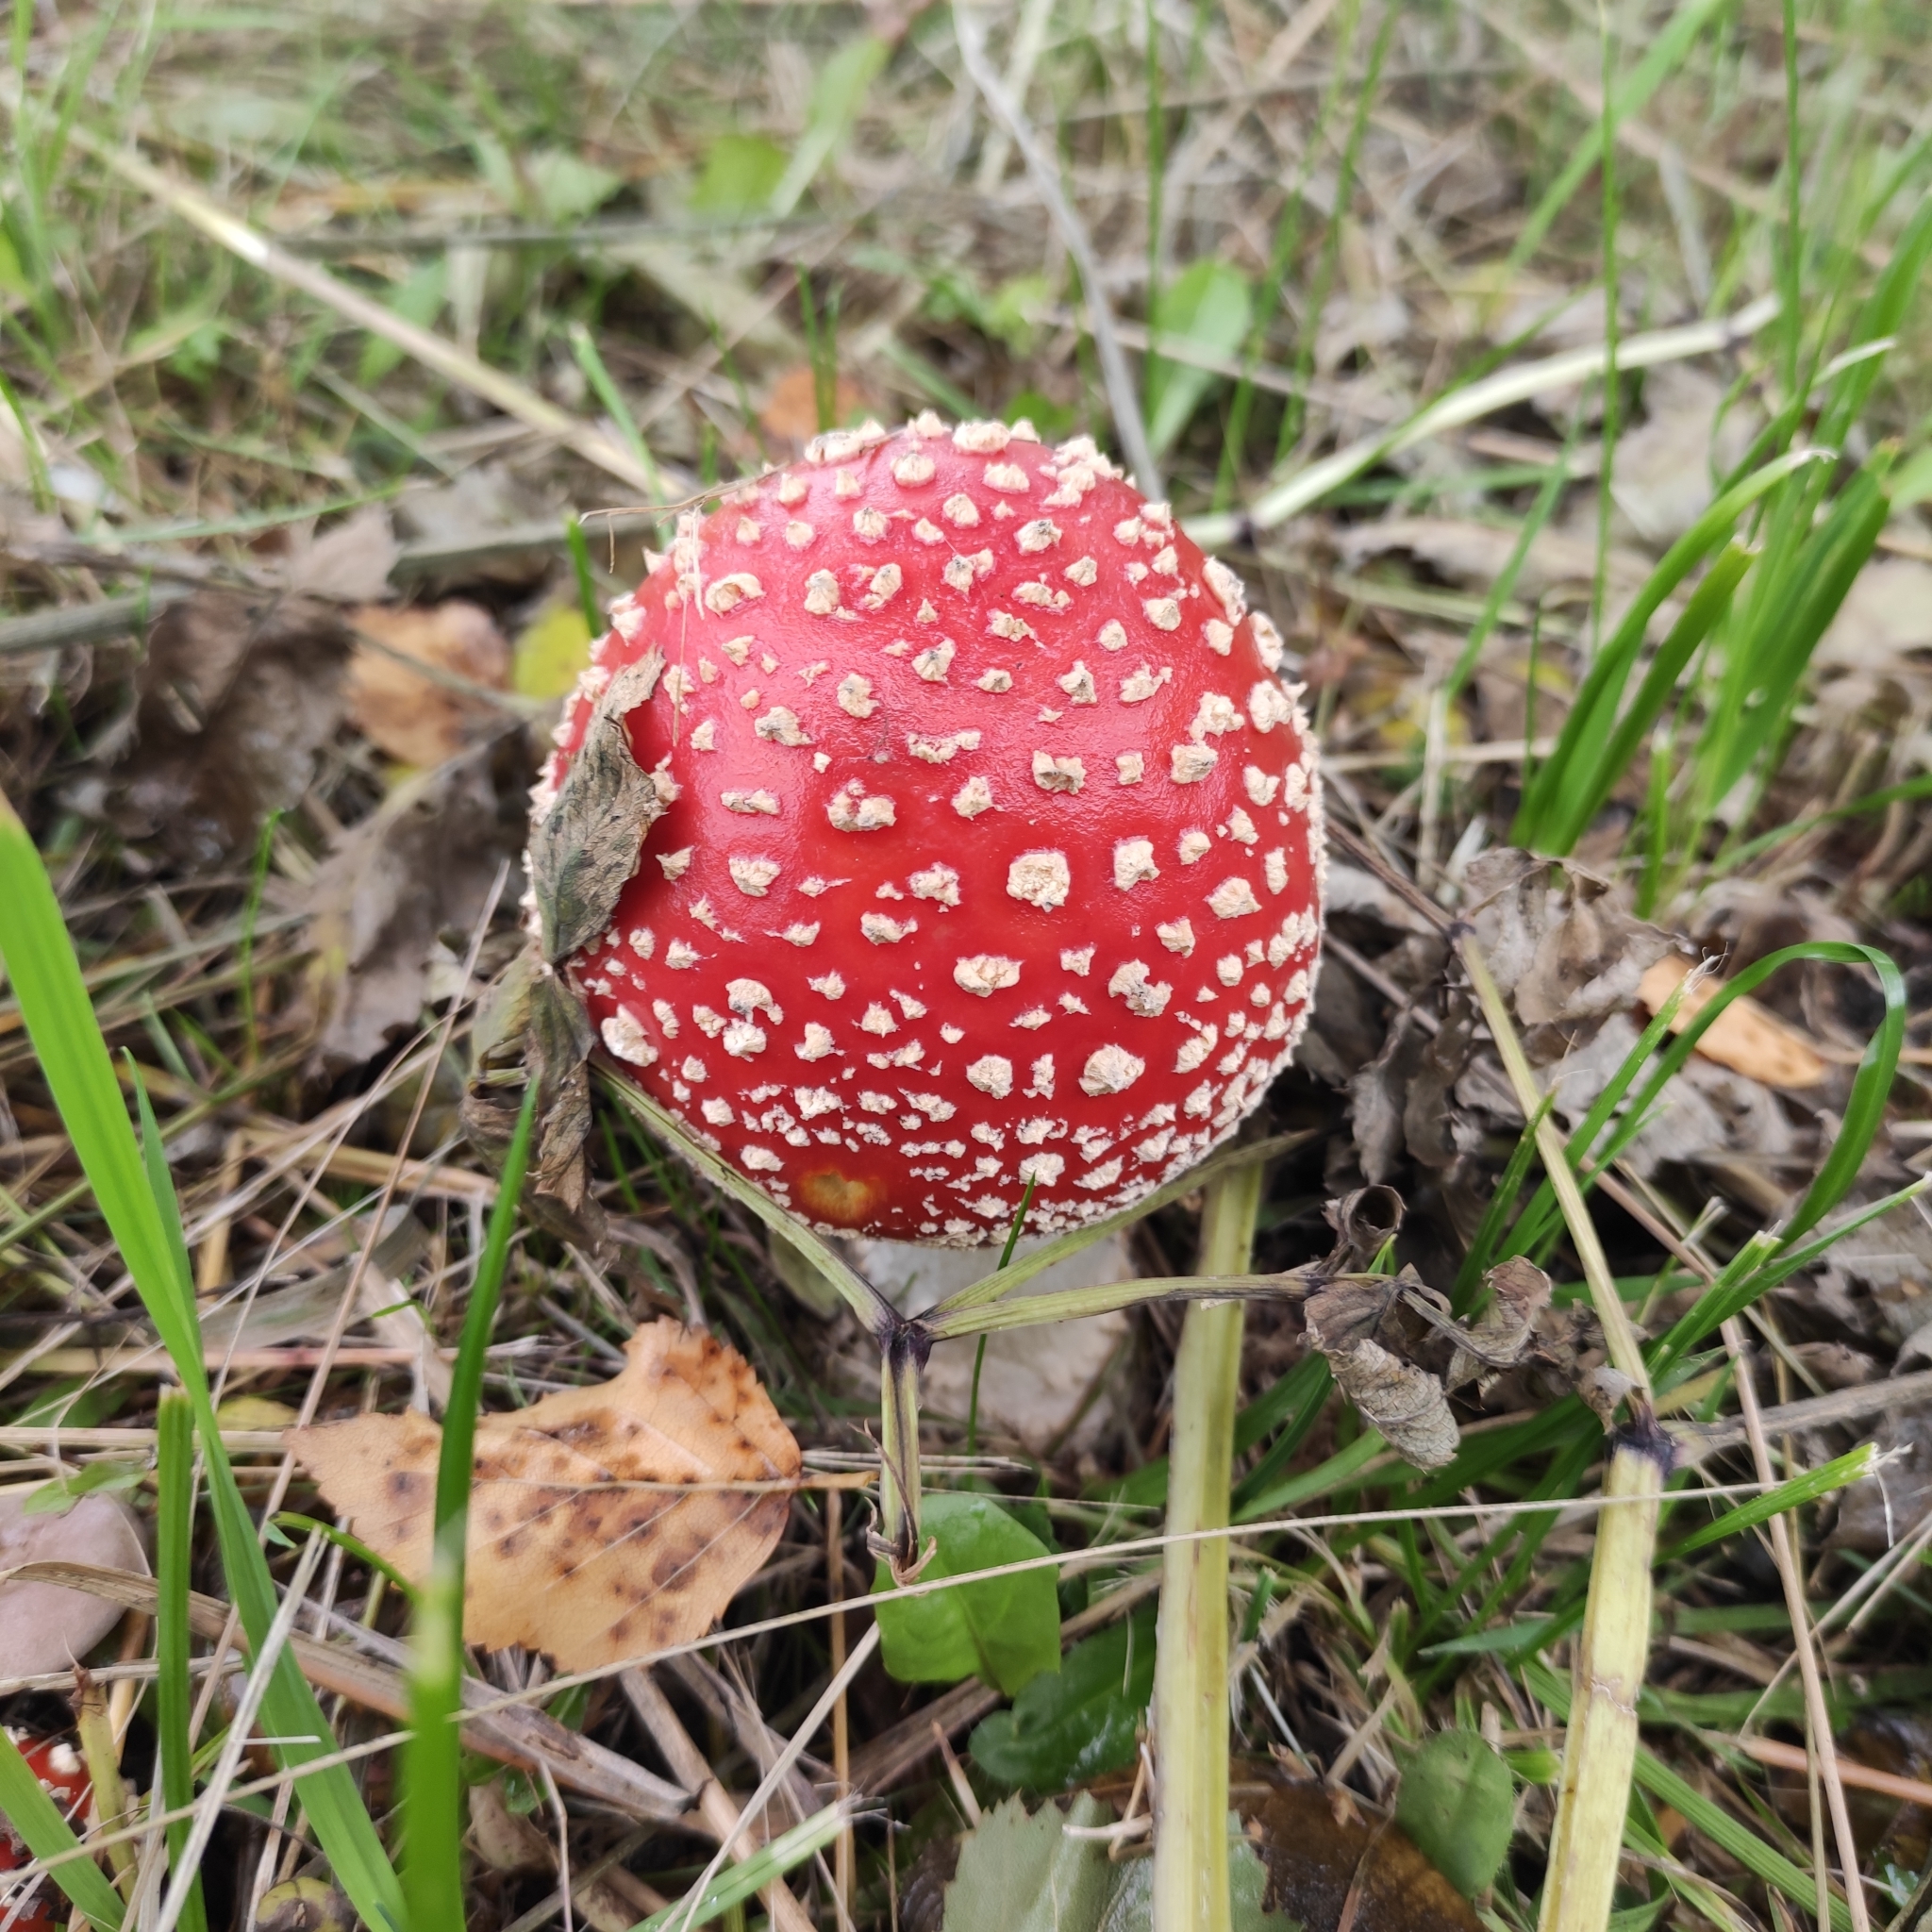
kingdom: Fungi
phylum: Basidiomycota
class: Agaricomycetes
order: Agaricales
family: Amanitaceae
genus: Amanita
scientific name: Amanita muscaria
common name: Fly agaric
